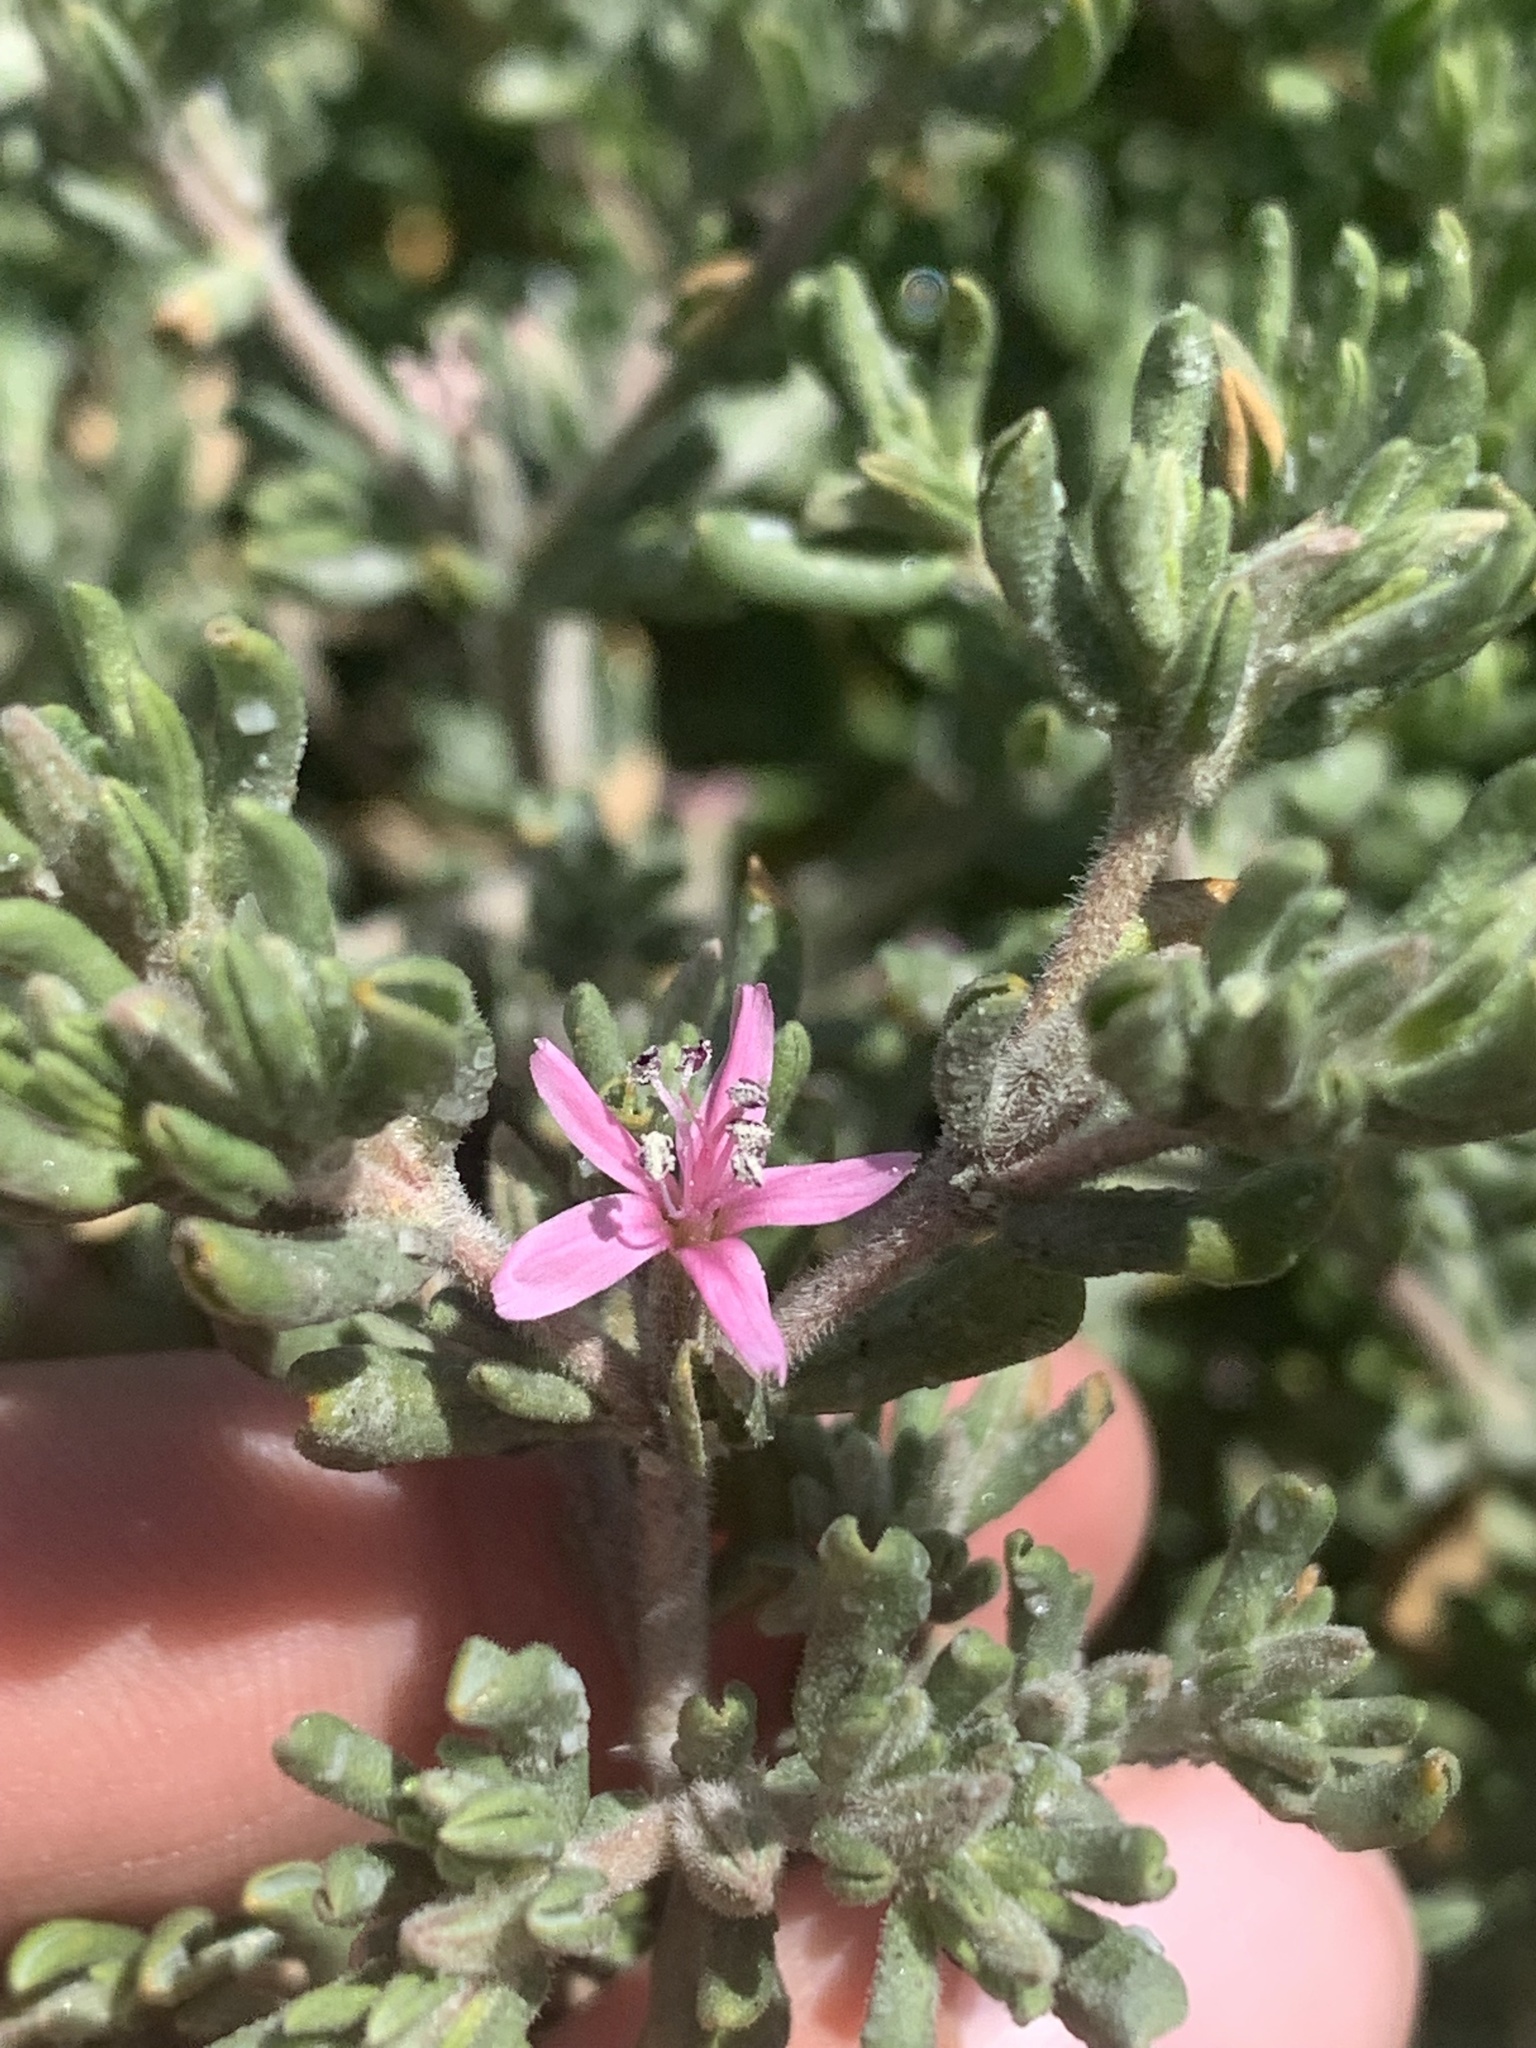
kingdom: Plantae
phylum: Tracheophyta
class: Magnoliopsida
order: Caryophyllales
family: Frankeniaceae
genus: Frankenia
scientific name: Frankenia salina
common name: Alkali seaheath
